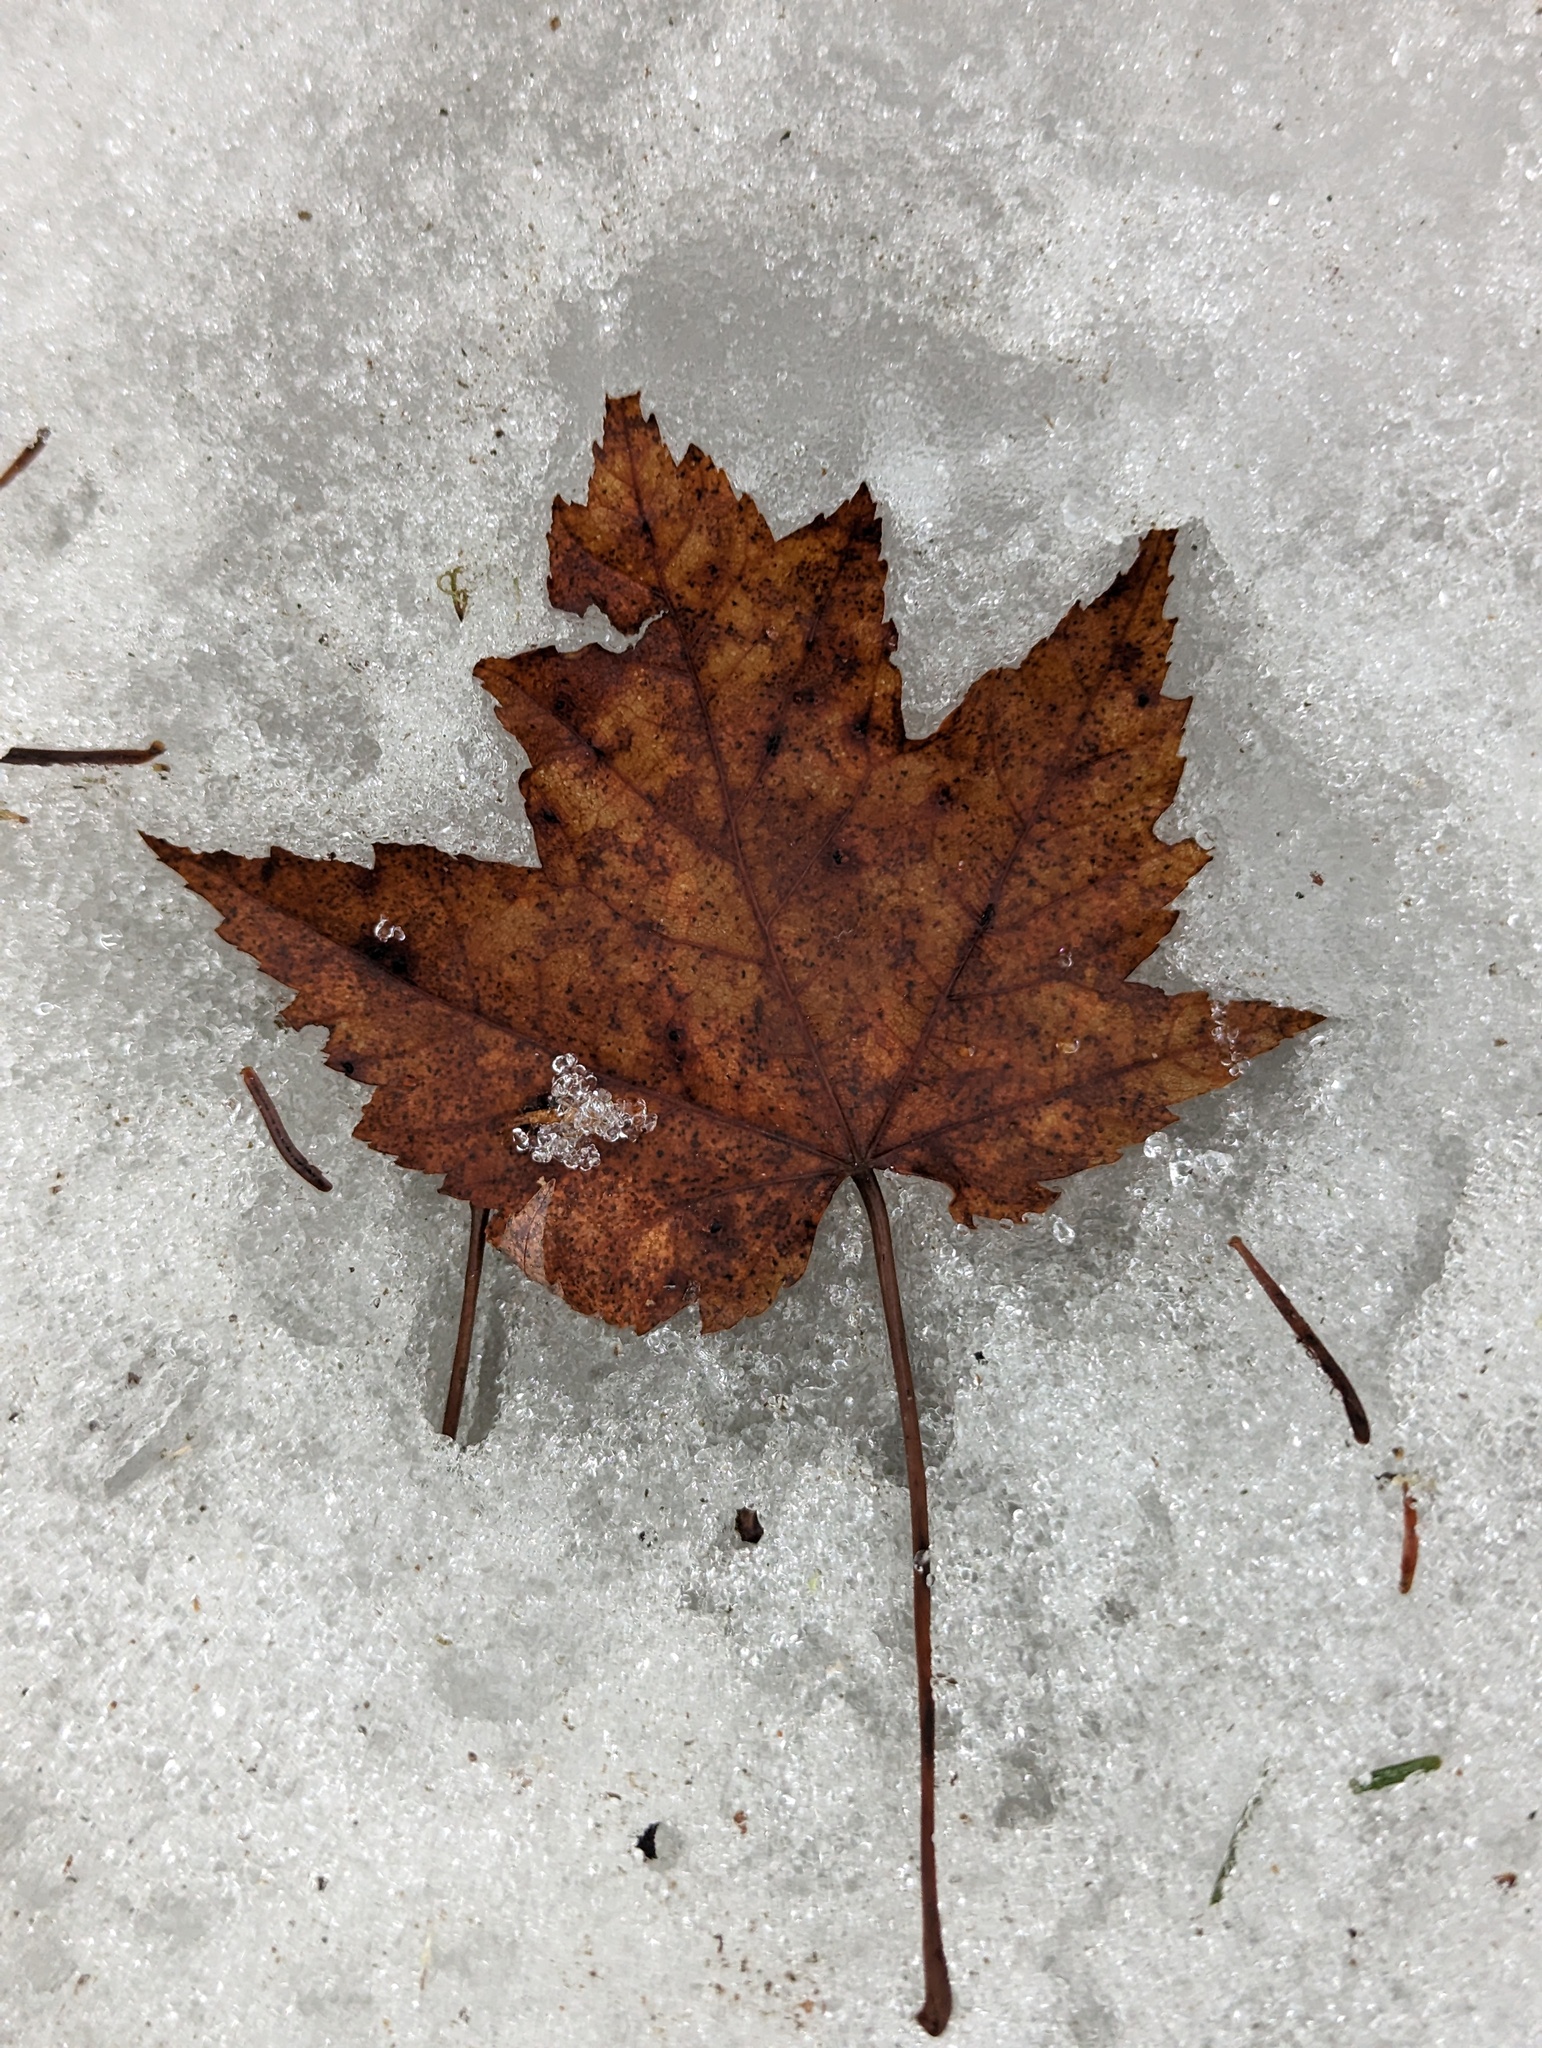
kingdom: Plantae
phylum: Tracheophyta
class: Magnoliopsida
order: Sapindales
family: Sapindaceae
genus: Acer
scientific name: Acer rubrum
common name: Red maple
